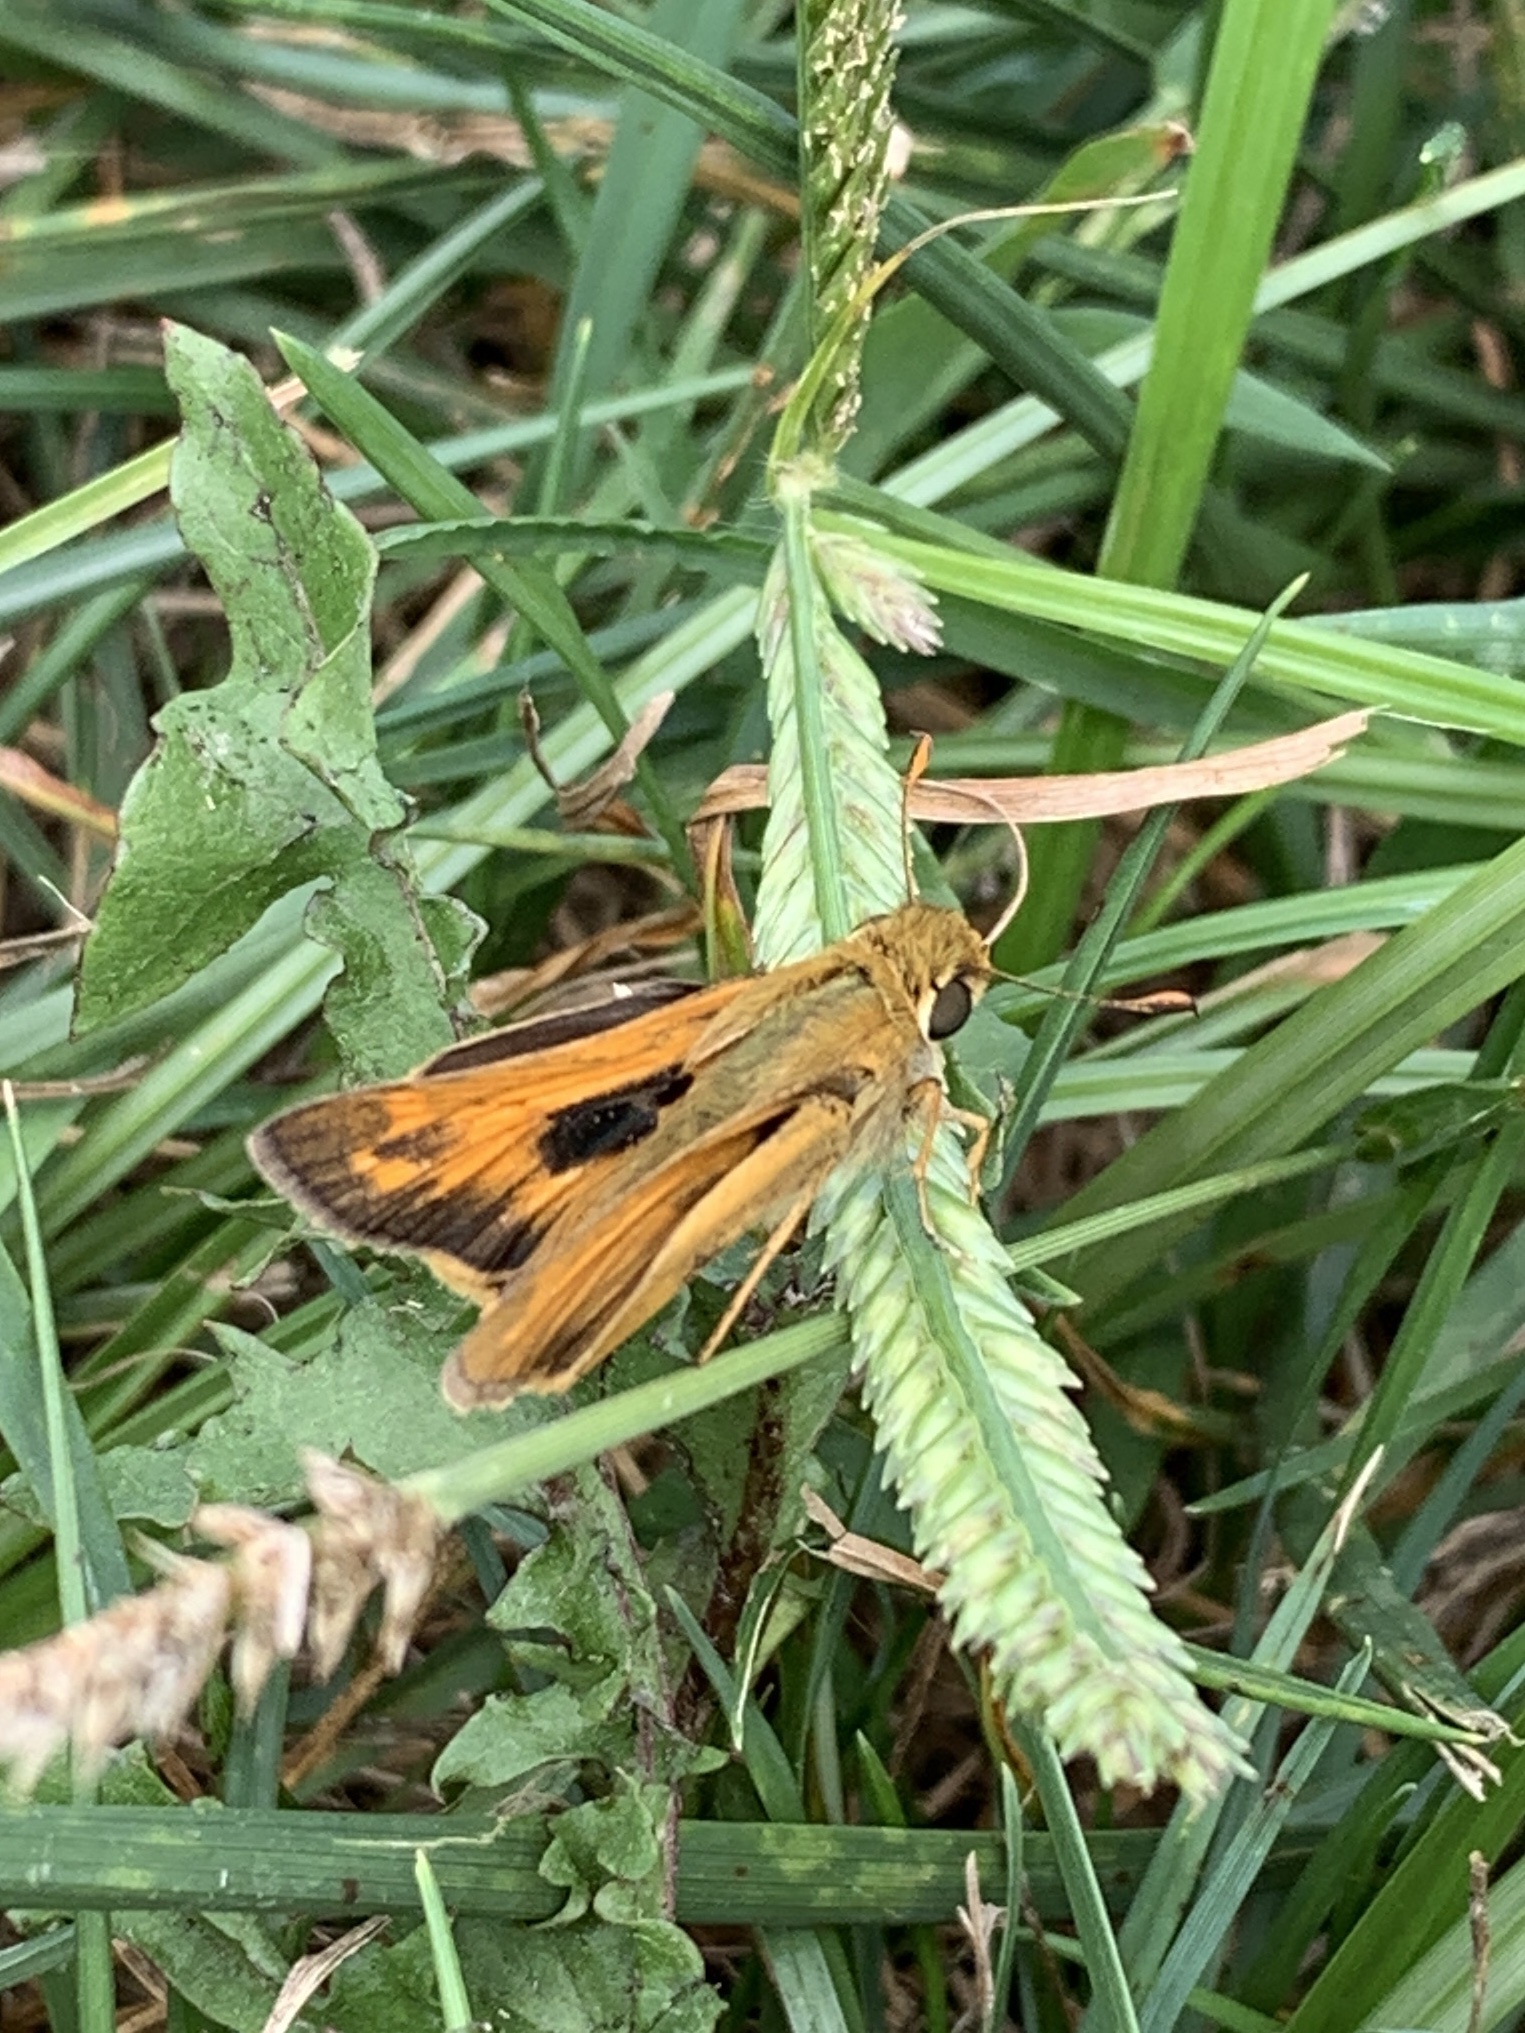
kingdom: Animalia
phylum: Arthropoda
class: Insecta
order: Lepidoptera
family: Hesperiidae
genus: Atalopedes
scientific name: Atalopedes
